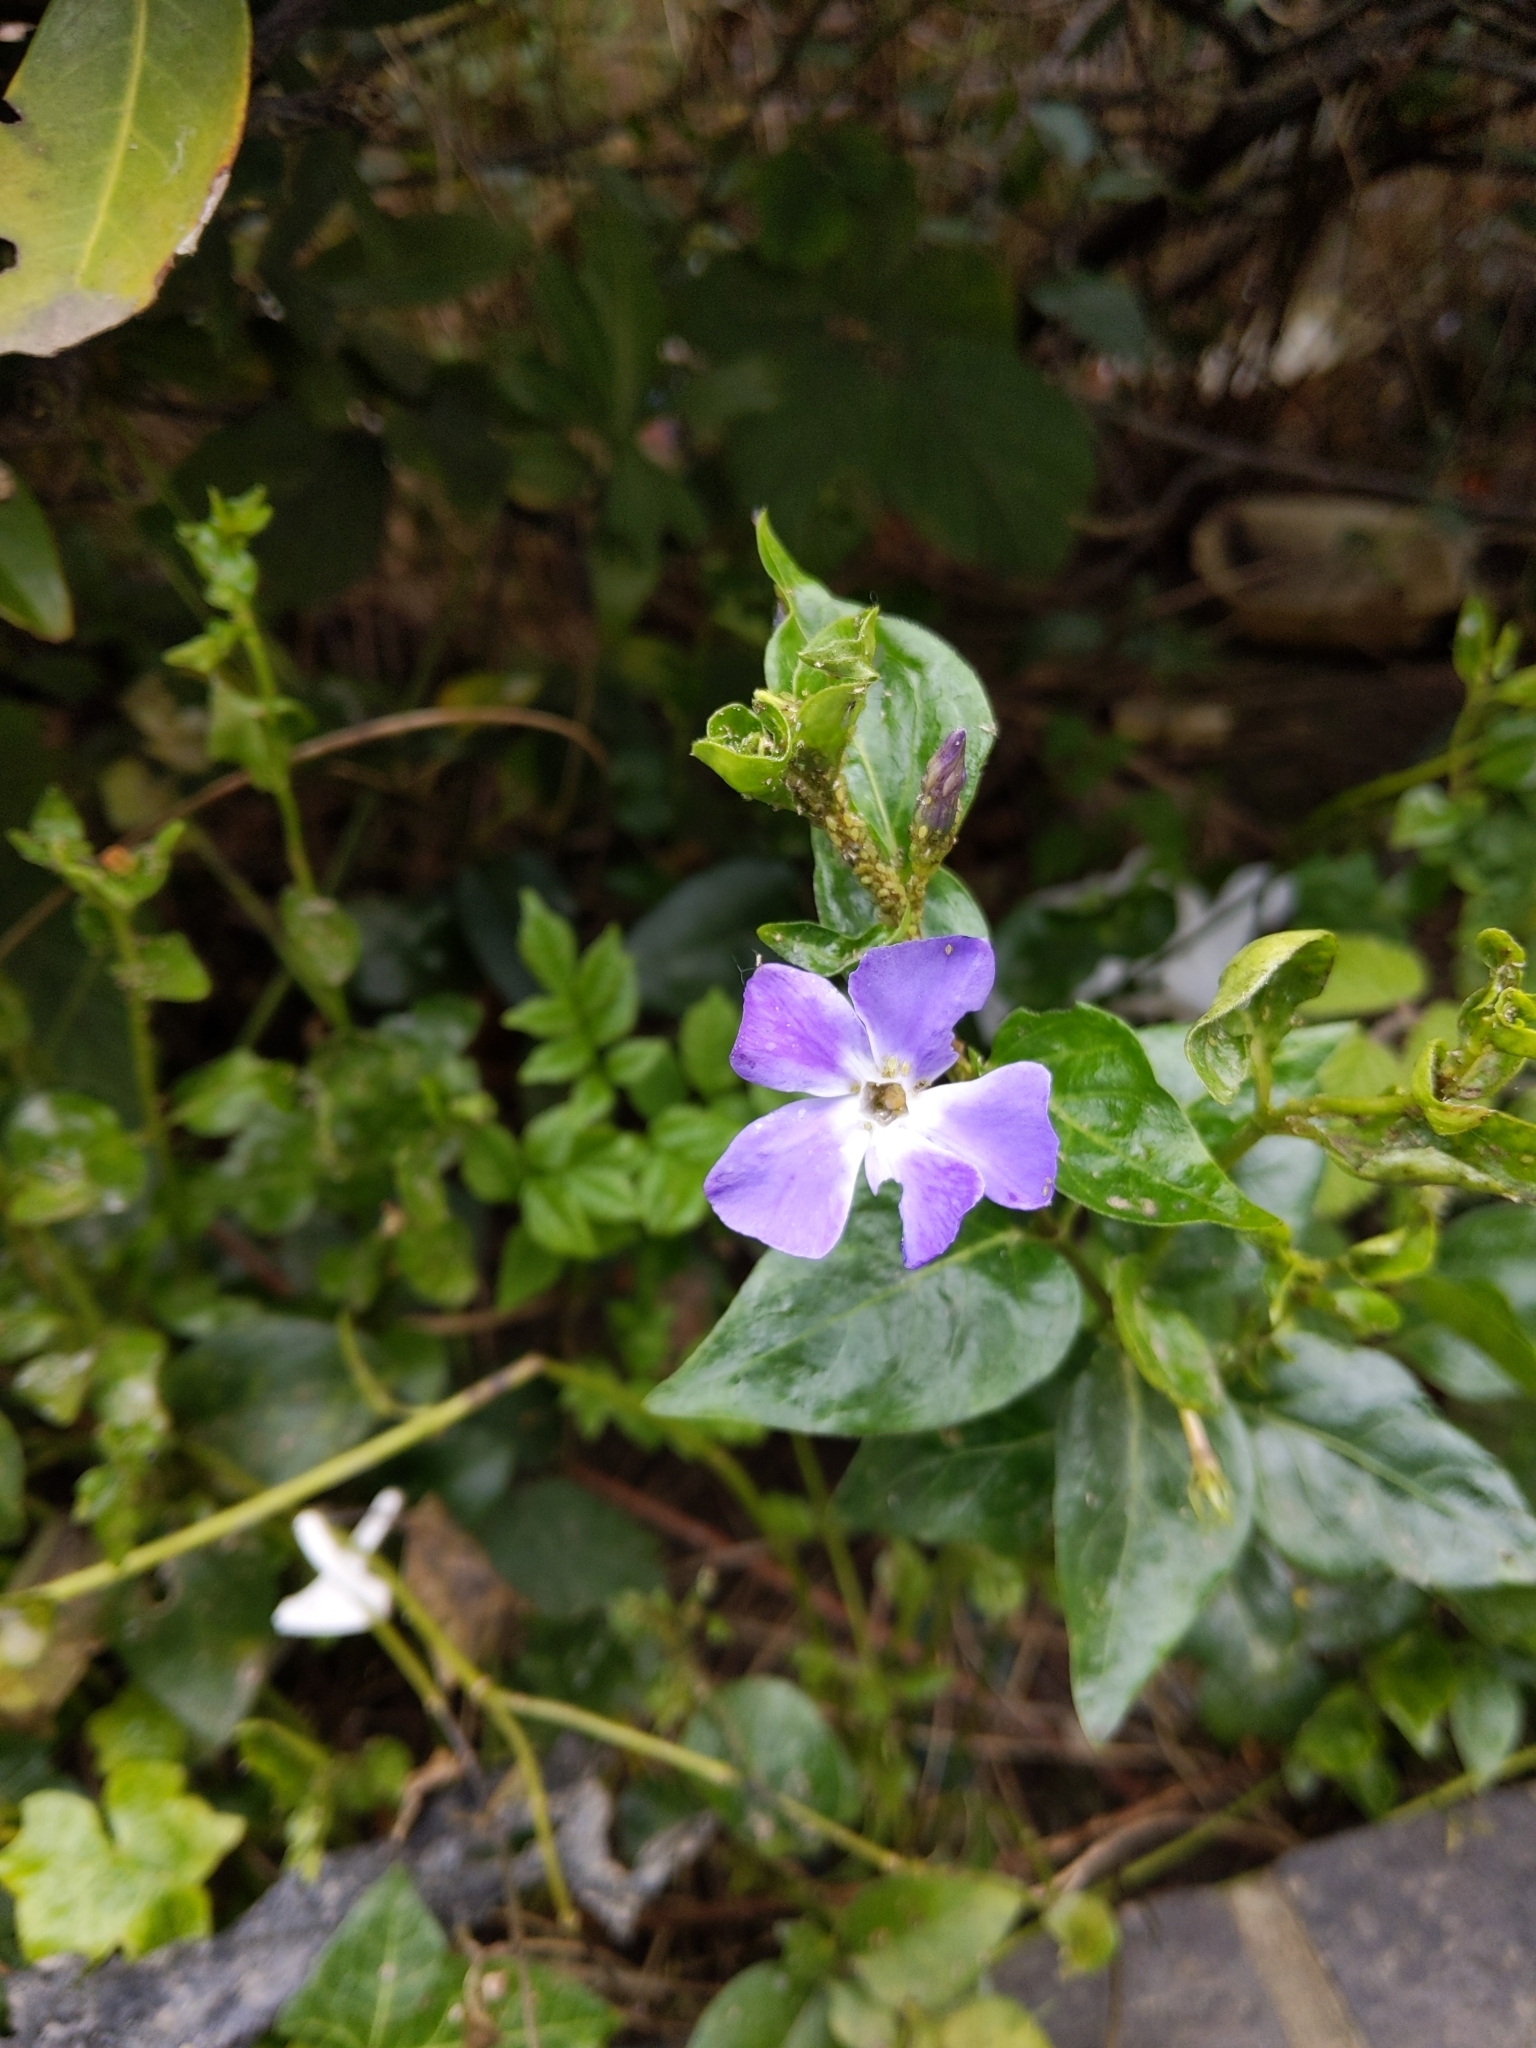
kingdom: Plantae
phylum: Tracheophyta
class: Magnoliopsida
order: Gentianales
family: Apocynaceae
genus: Vinca
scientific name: Vinca major
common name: Greater periwinkle
